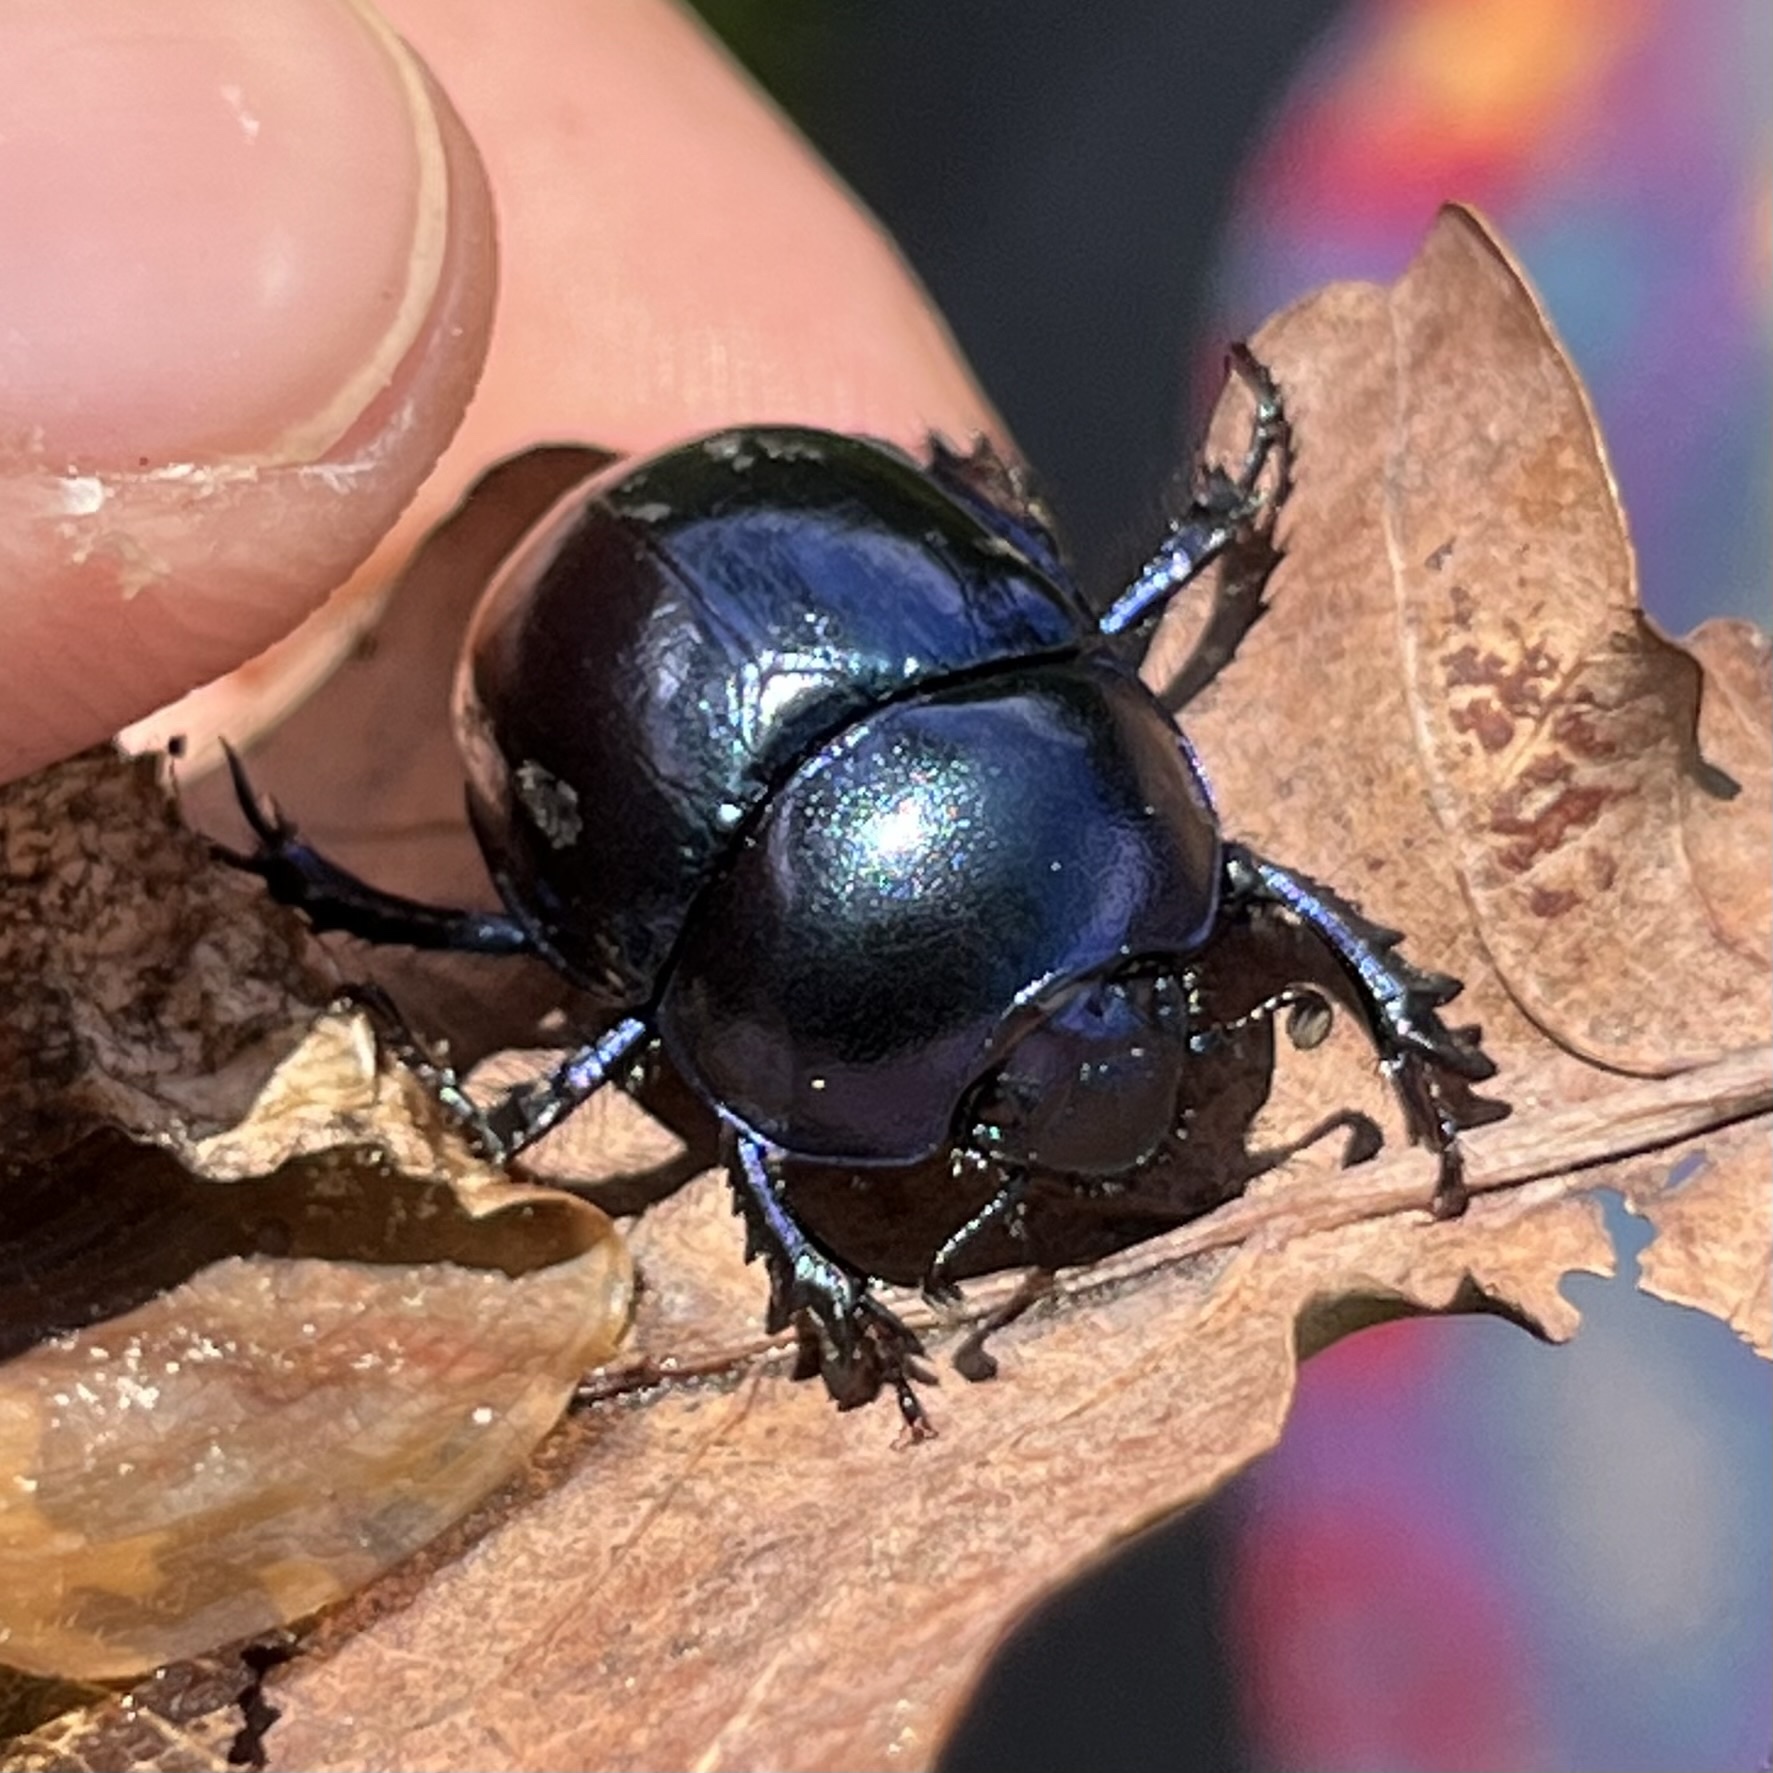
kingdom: Animalia
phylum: Arthropoda
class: Insecta
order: Coleoptera
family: Geotrupidae
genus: Trypocopris
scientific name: Trypocopris vernalis
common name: Spring dumbledor
